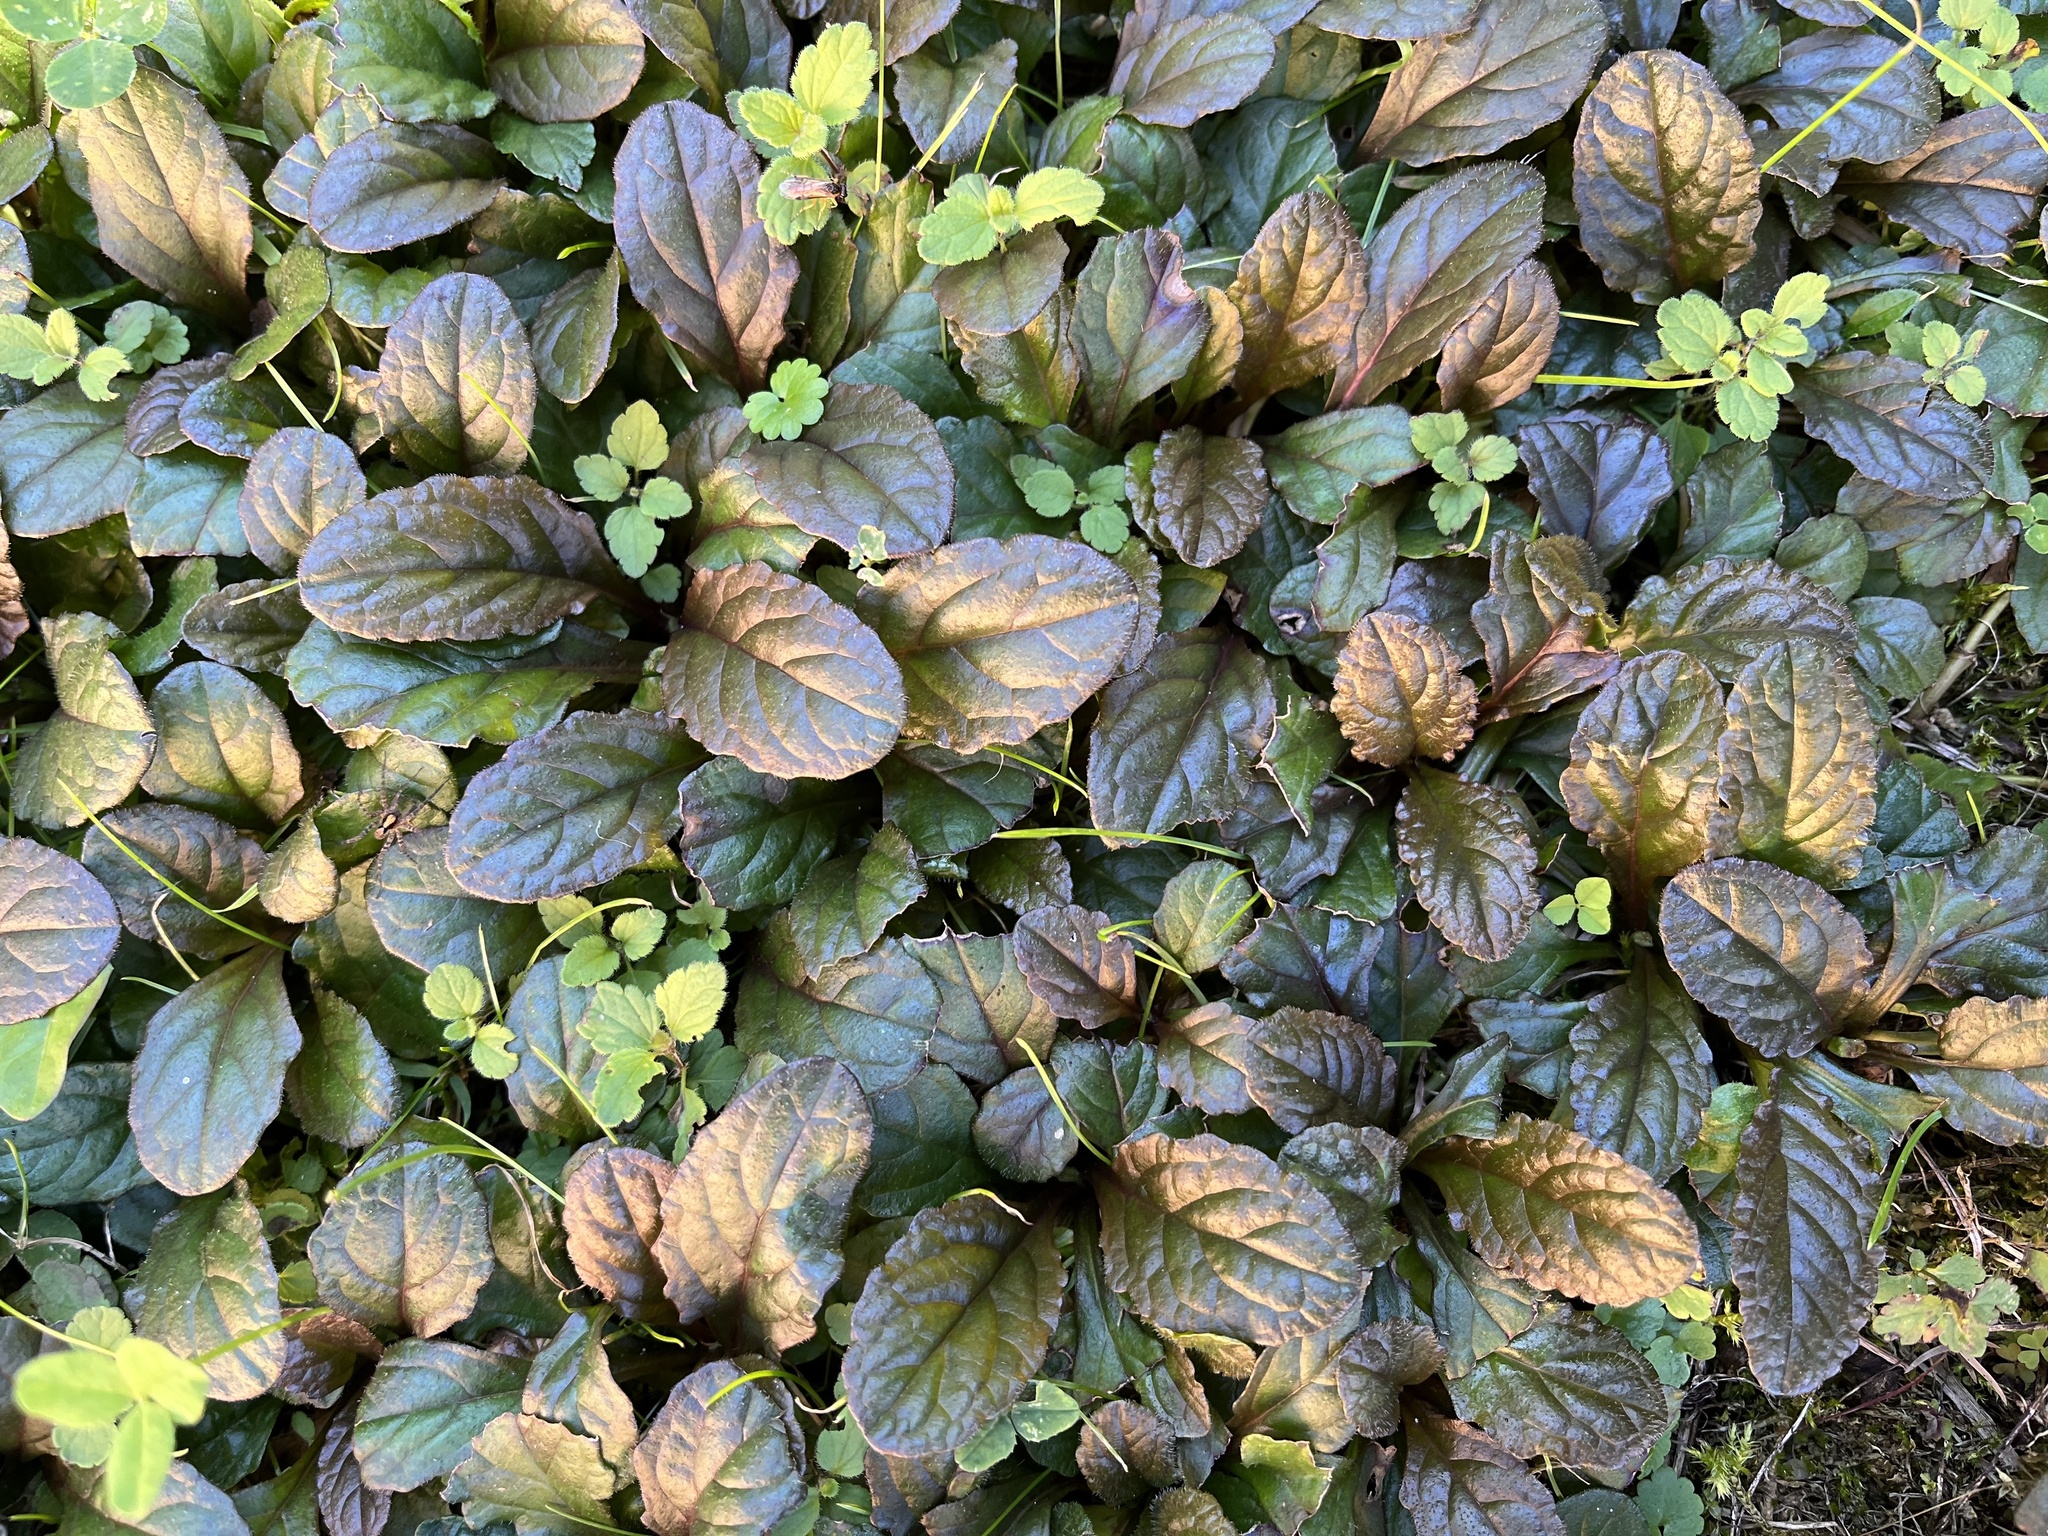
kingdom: Plantae
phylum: Tracheophyta
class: Magnoliopsida
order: Lamiales
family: Lamiaceae
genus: Ajuga
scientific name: Ajuga reptans
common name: Bugle
